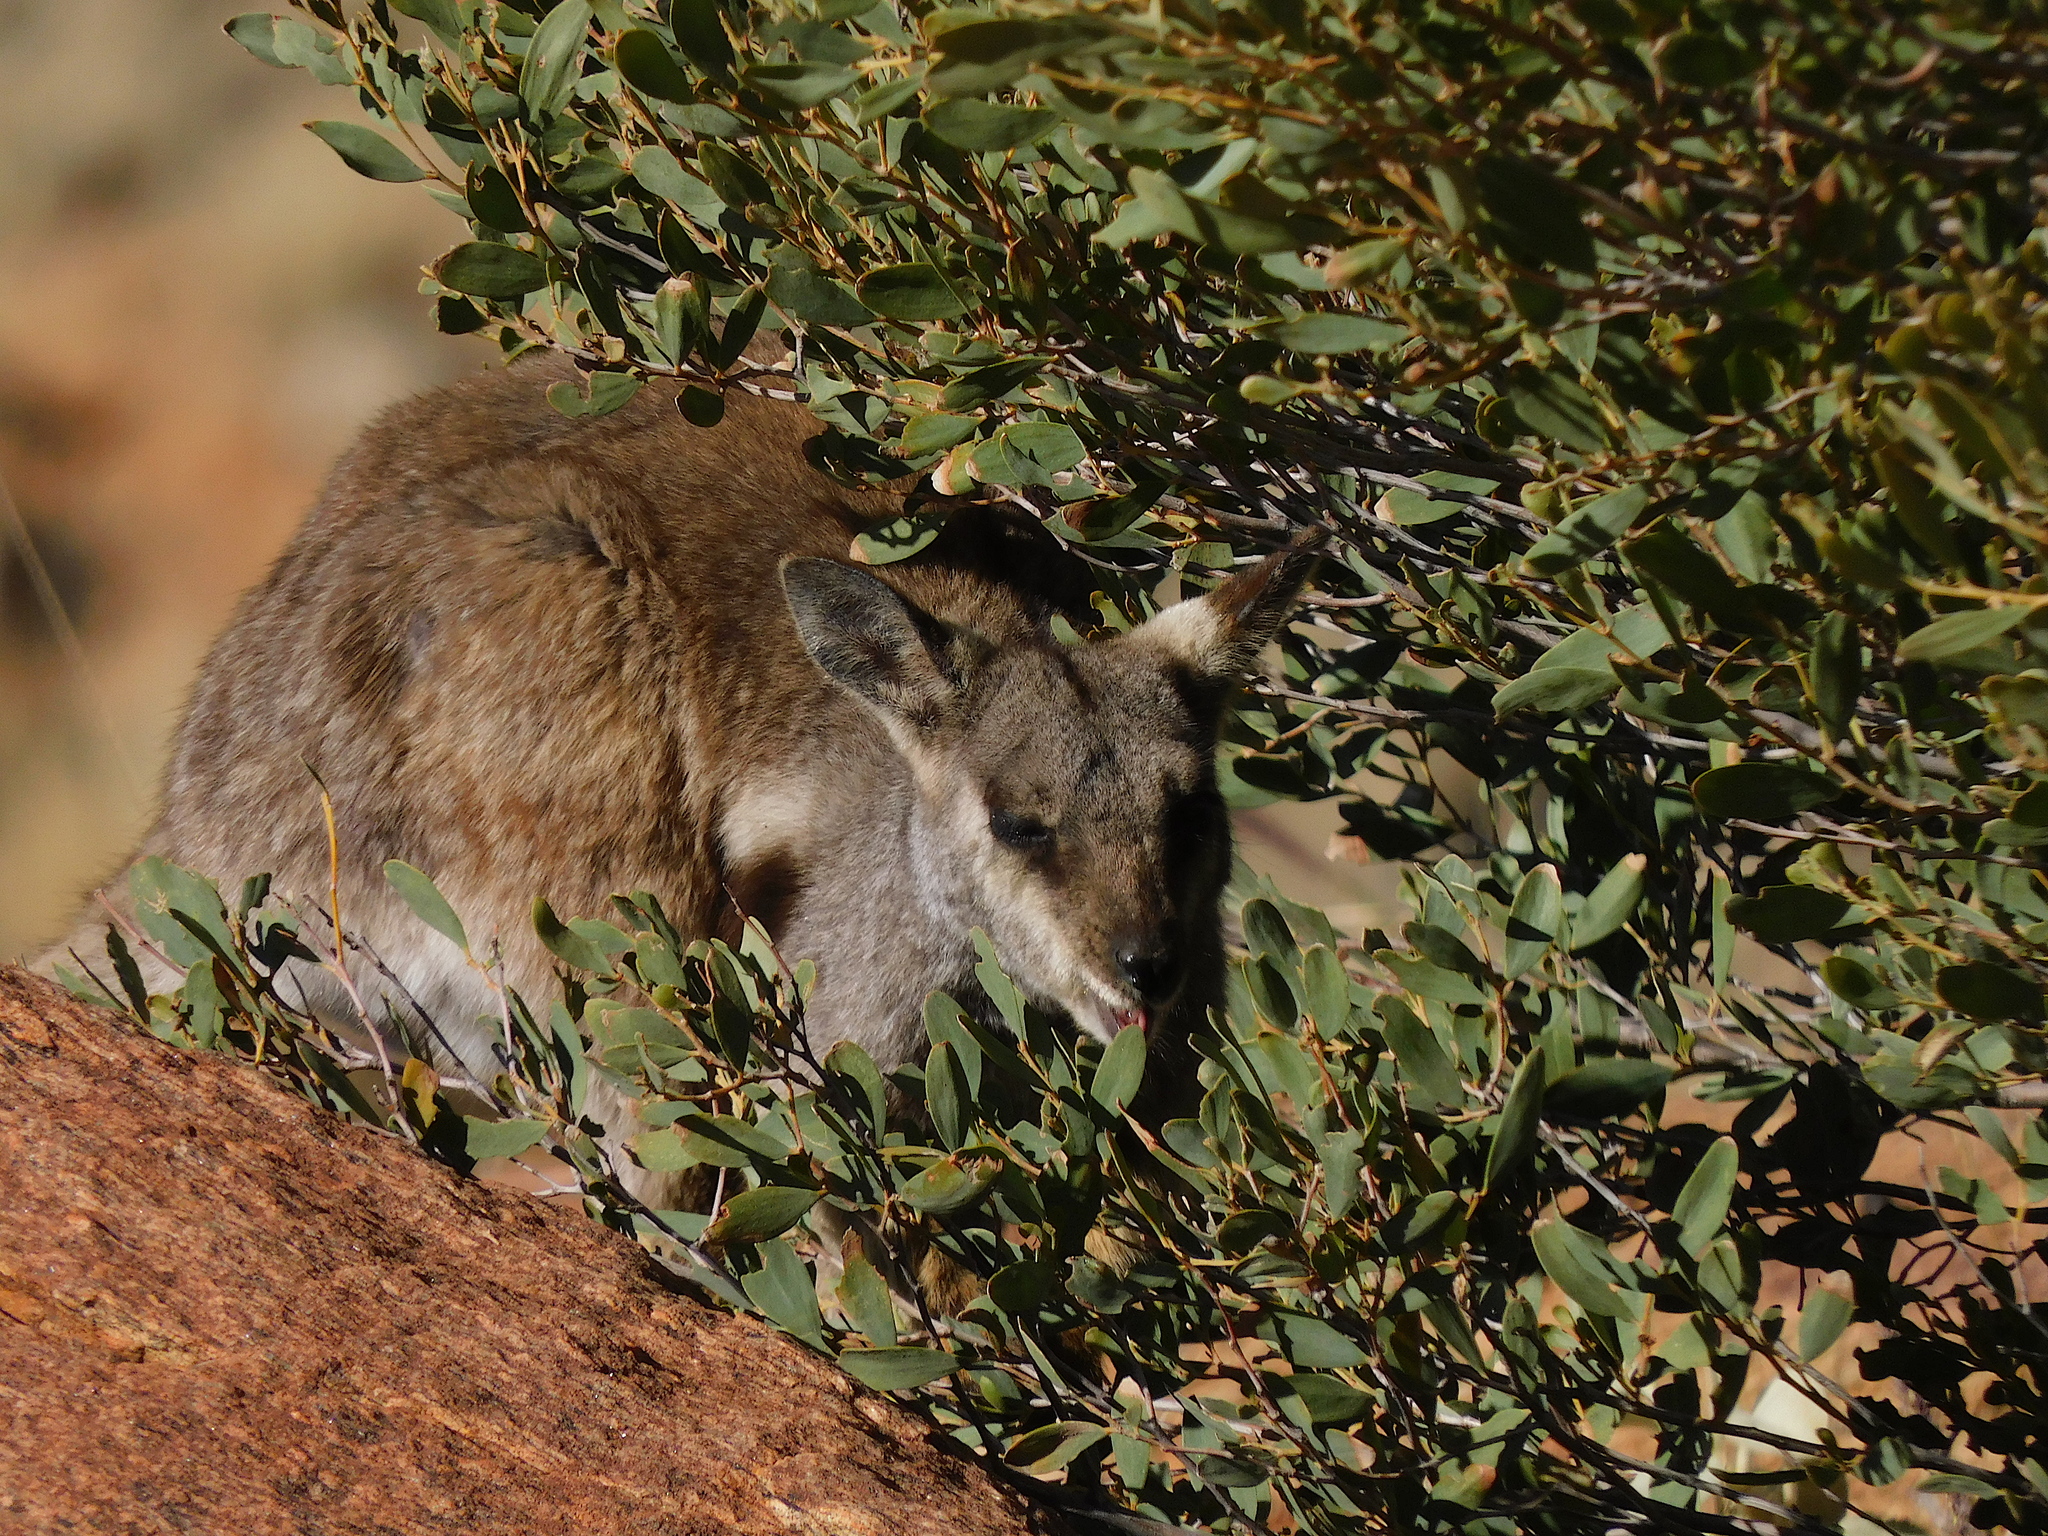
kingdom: Animalia
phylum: Chordata
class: Mammalia
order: Diprotodontia
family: Macropodidae
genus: Petrogale
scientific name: Petrogale lateralis
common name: Black-flanked rock-wallaby
